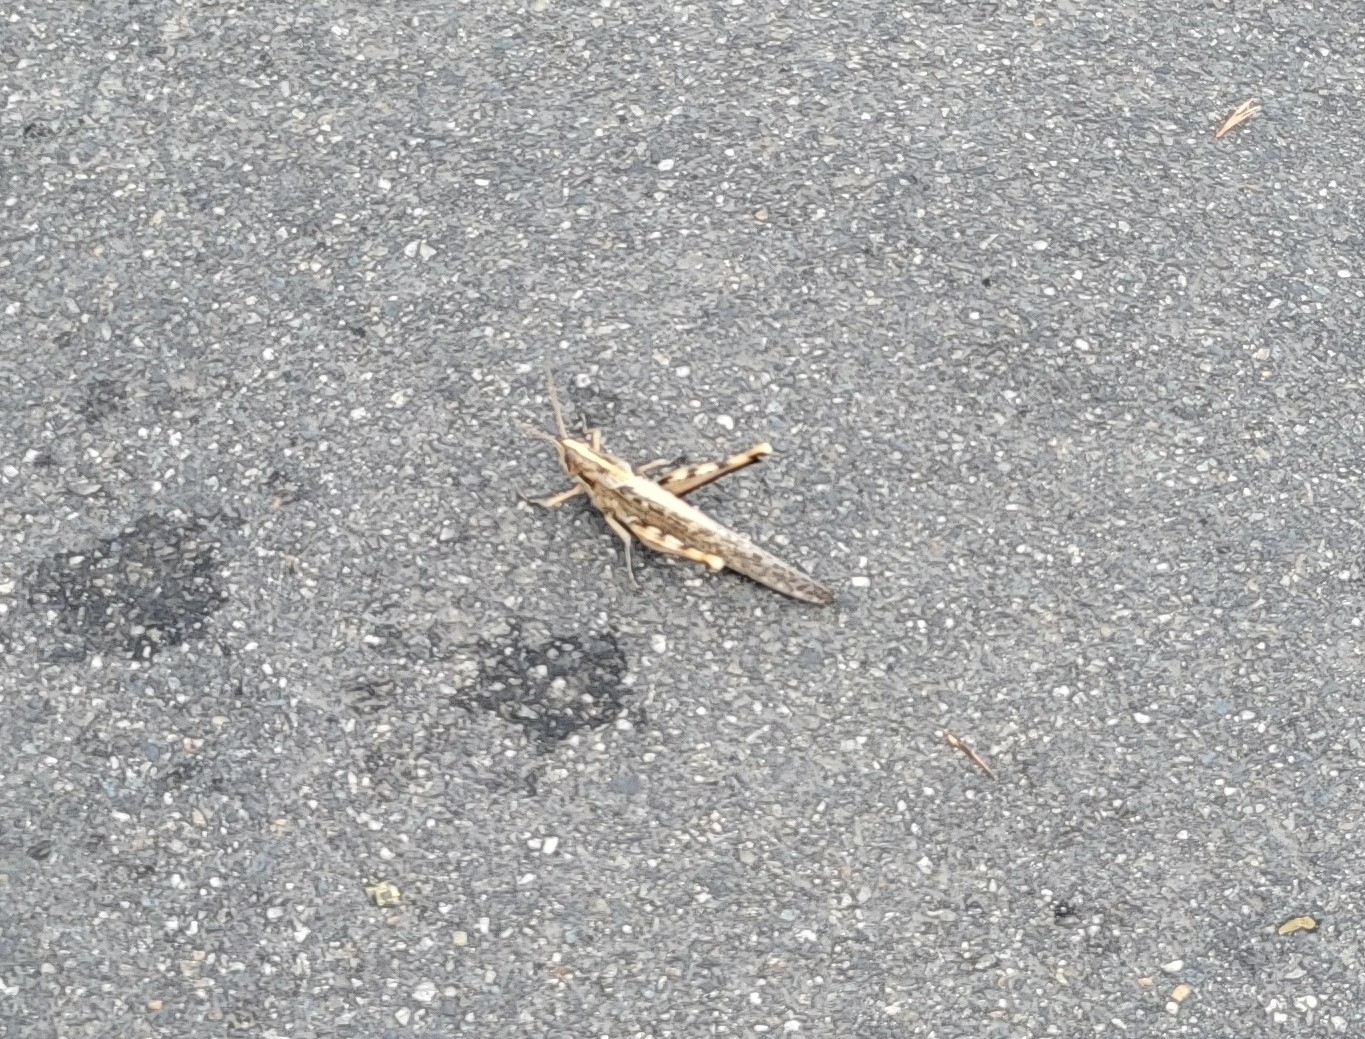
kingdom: Animalia
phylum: Arthropoda
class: Insecta
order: Orthoptera
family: Acrididae
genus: Schistocerca
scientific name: Schistocerca nitens
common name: Vagrant grasshopper
